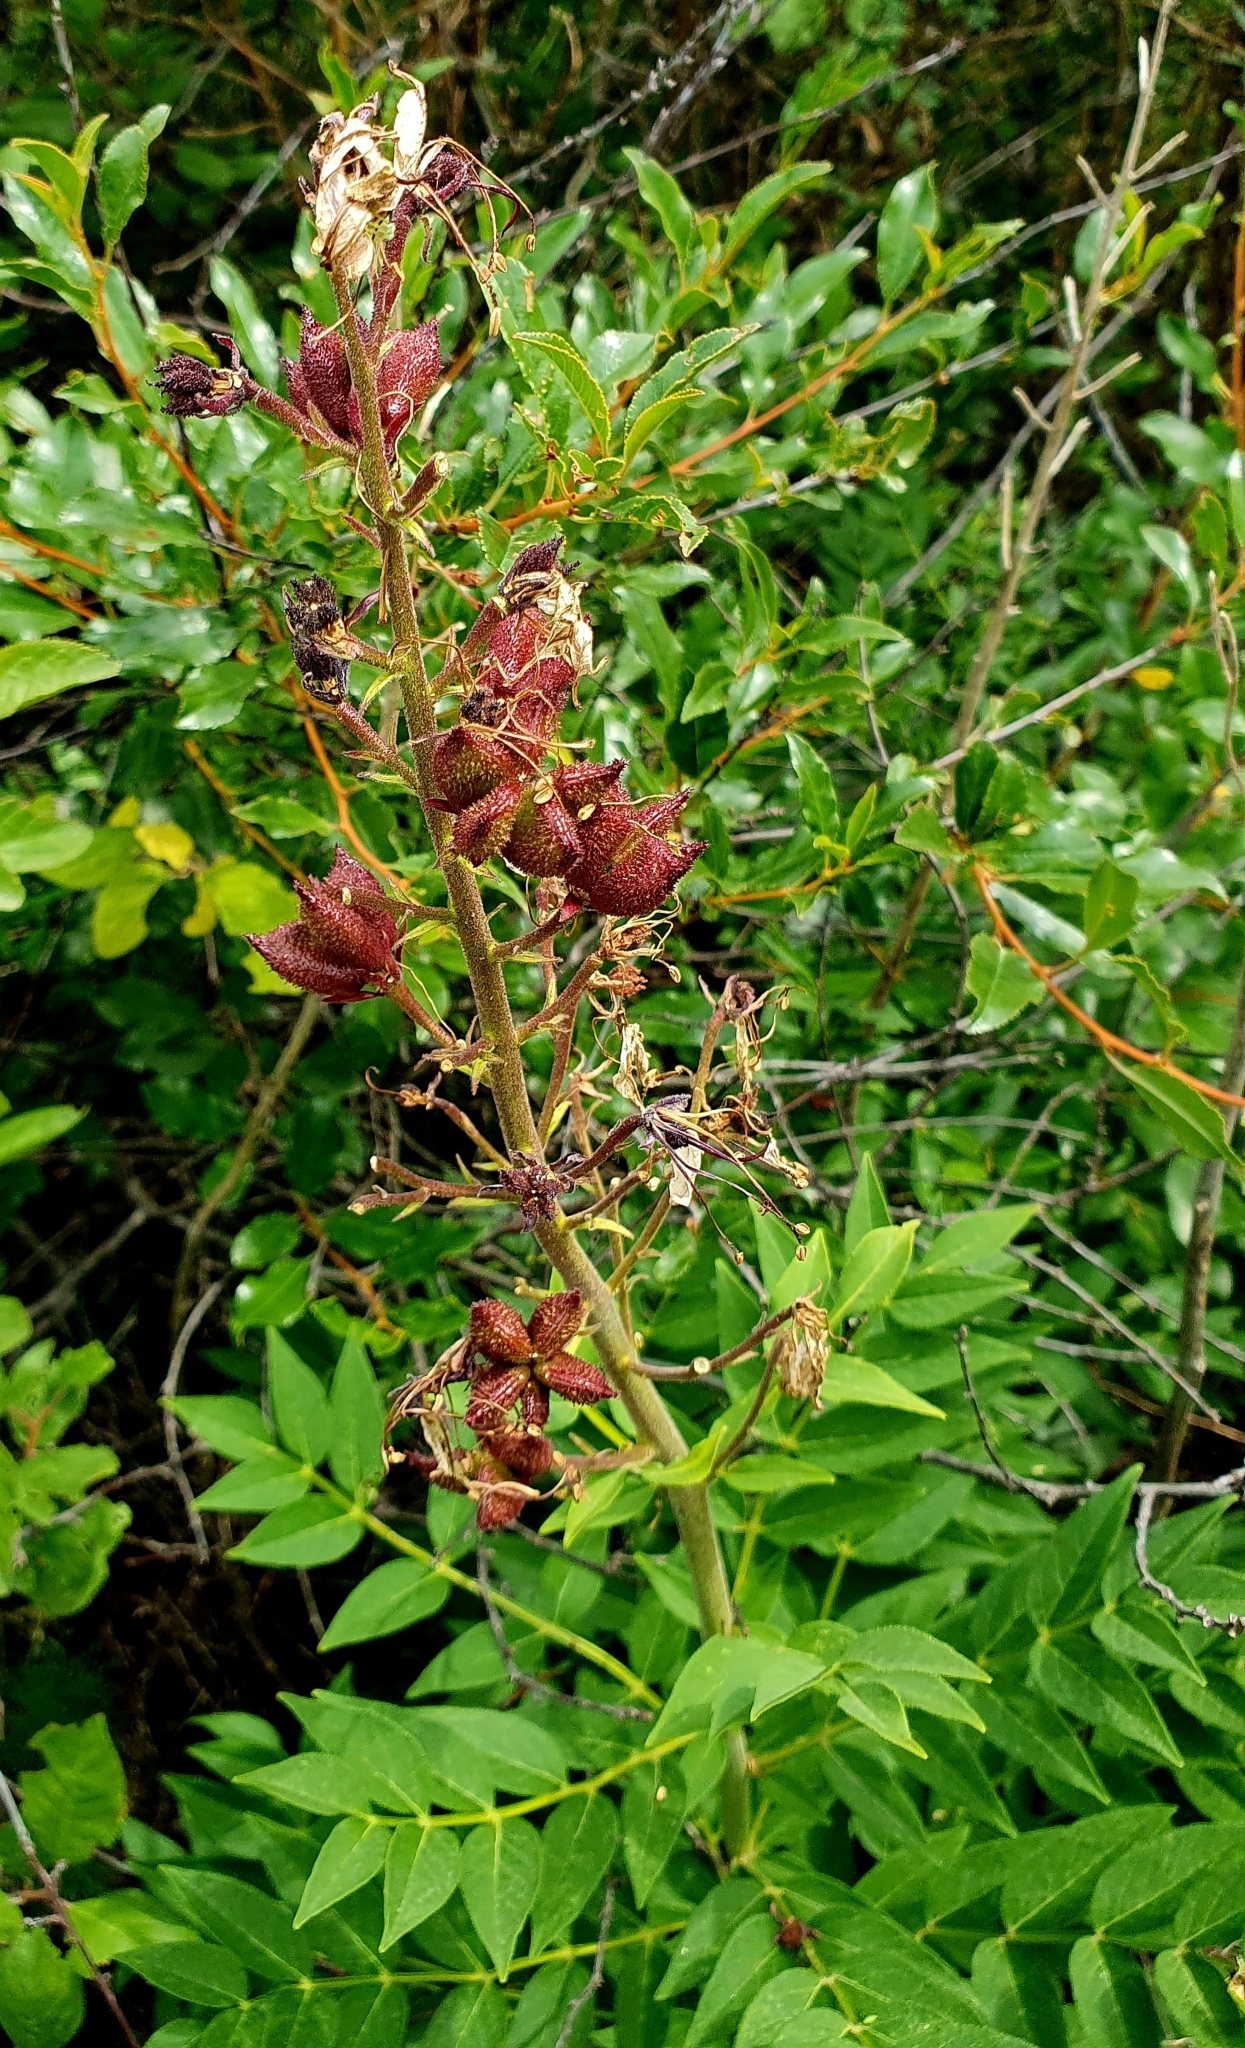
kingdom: Plantae
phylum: Tracheophyta
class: Magnoliopsida
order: Sapindales
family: Rutaceae
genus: Dictamnus
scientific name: Dictamnus albus
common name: Gasplant
